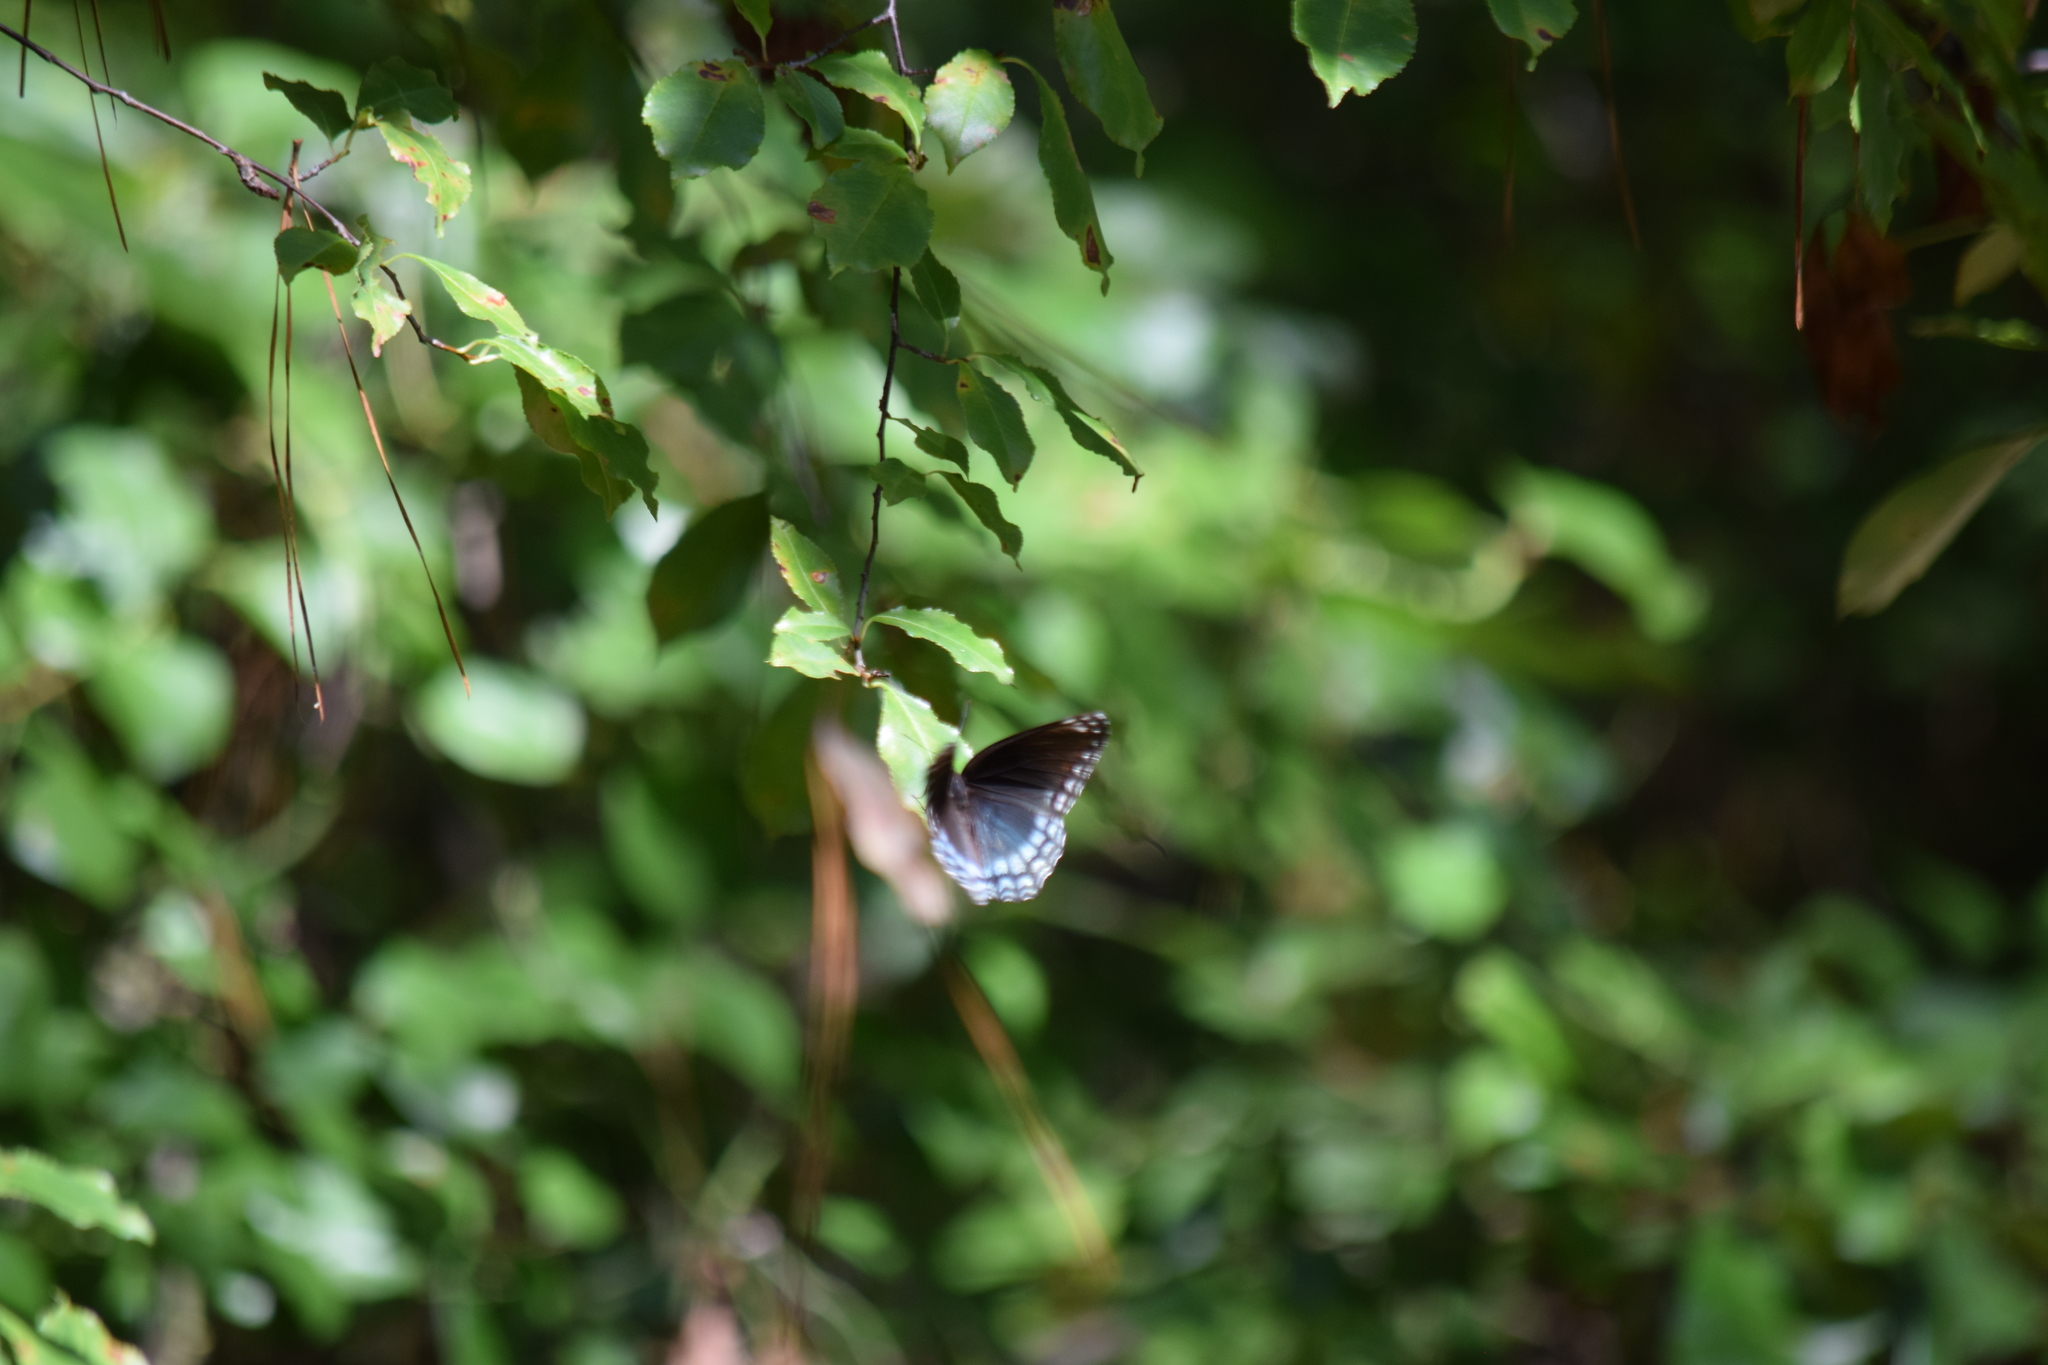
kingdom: Animalia
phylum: Arthropoda
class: Insecta
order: Lepidoptera
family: Nymphalidae
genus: Limenitis
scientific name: Limenitis astyanax
